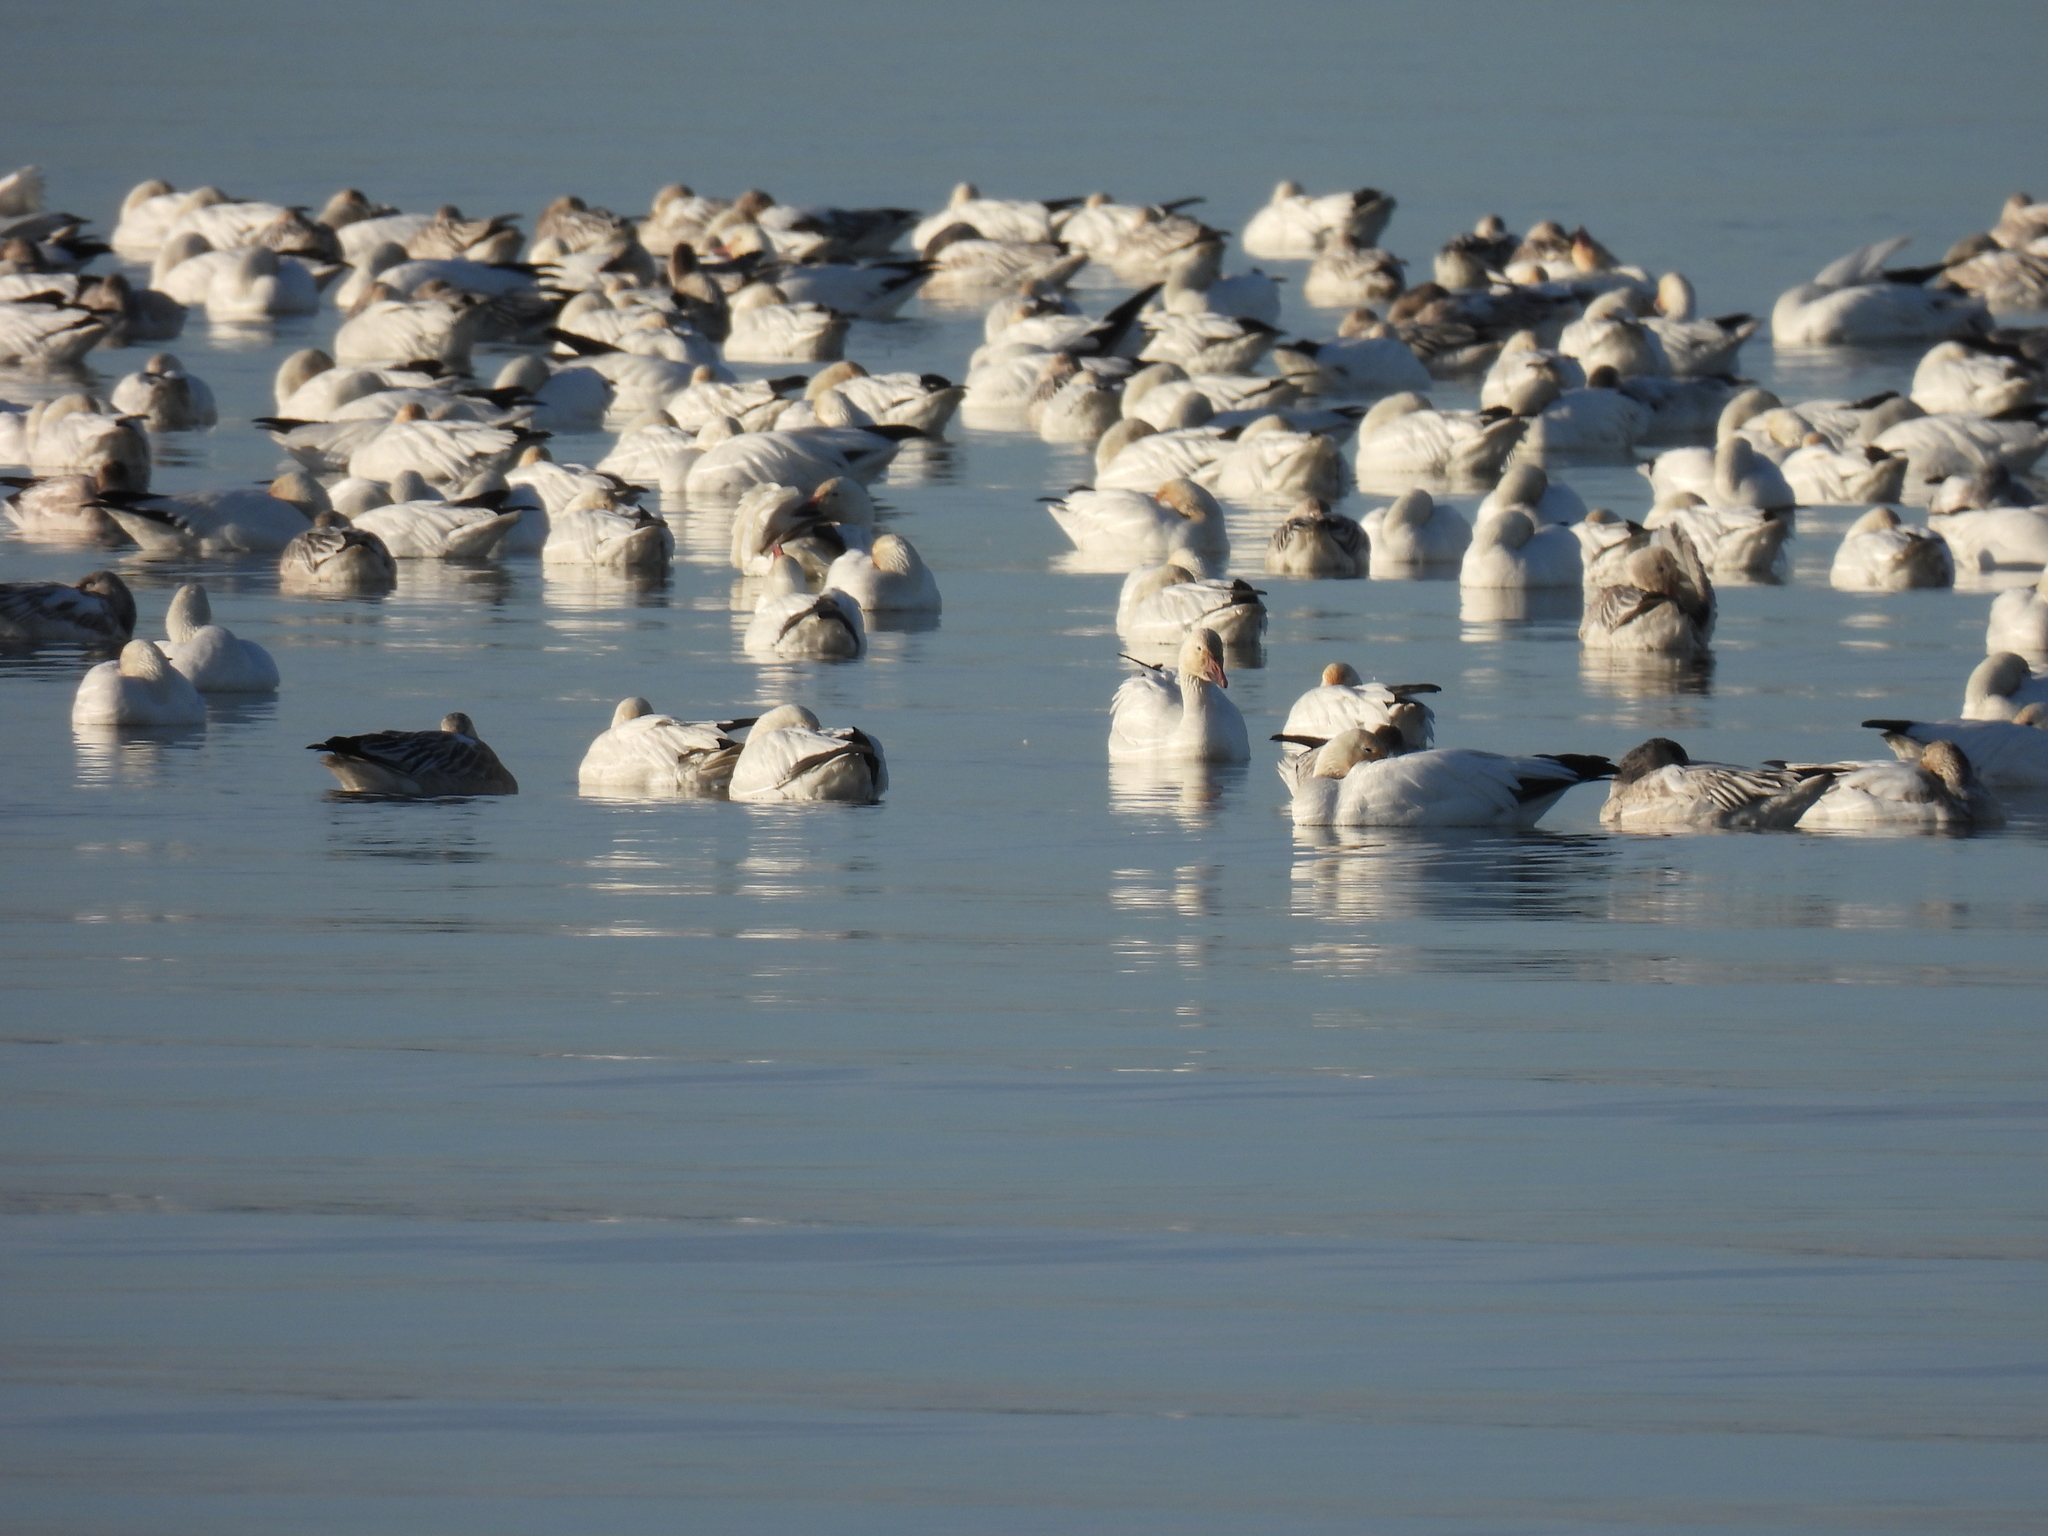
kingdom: Animalia
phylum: Chordata
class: Aves
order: Anseriformes
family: Anatidae
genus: Anser
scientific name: Anser caerulescens
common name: Snow goose
